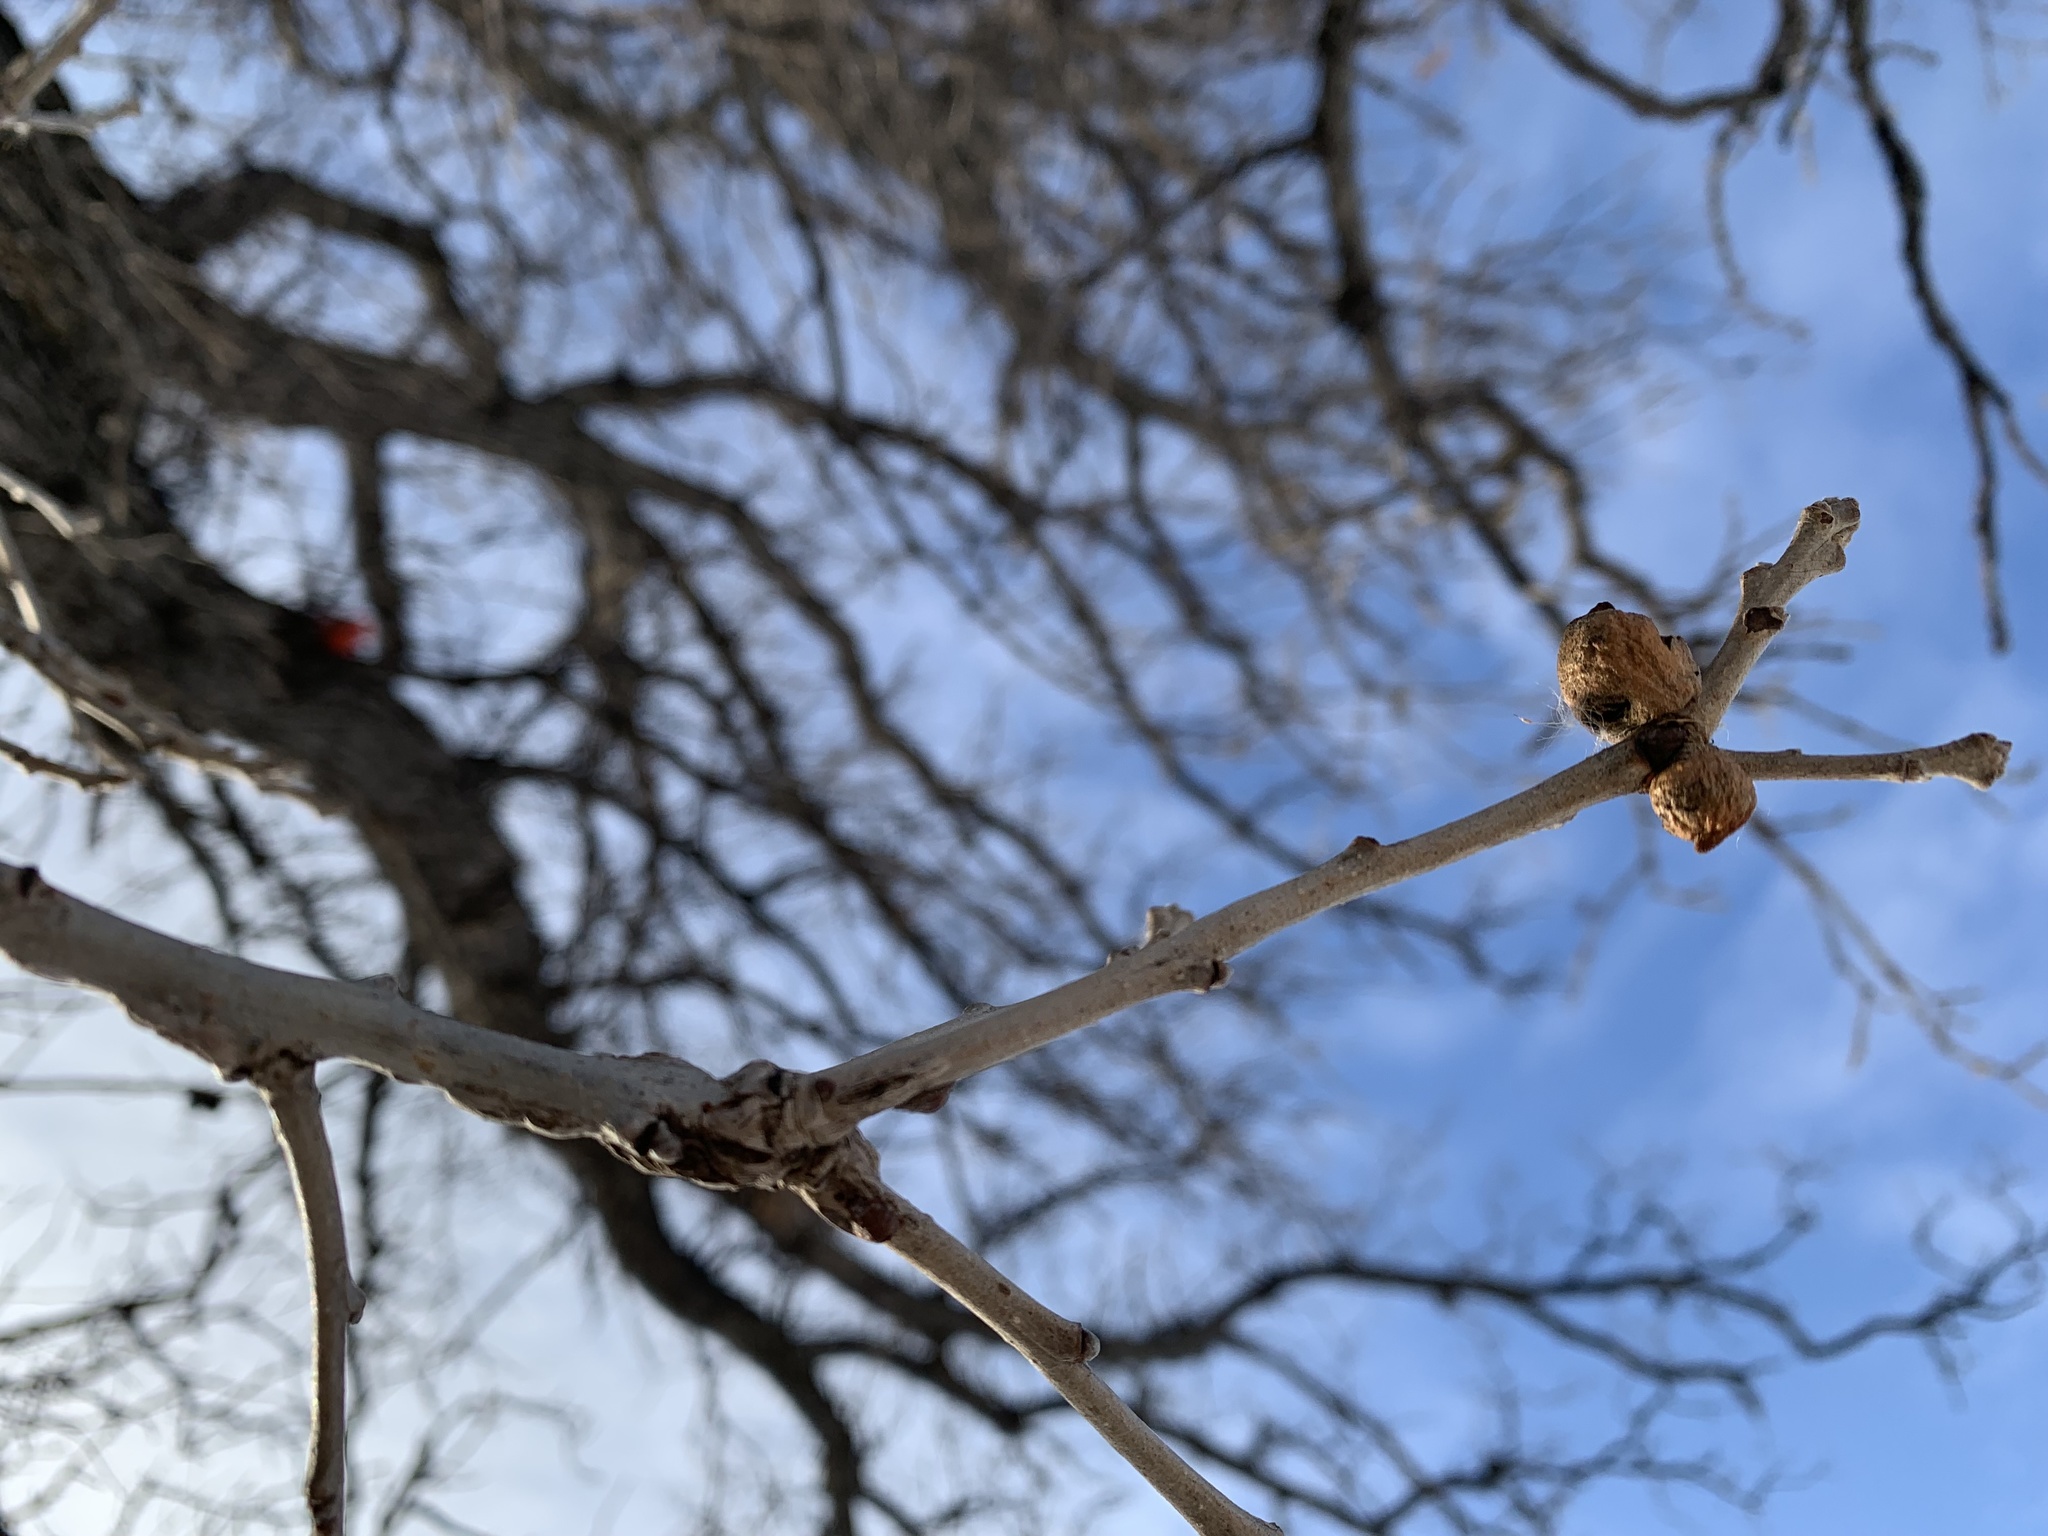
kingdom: Animalia
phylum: Arthropoda
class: Insecta
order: Hymenoptera
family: Cynipidae
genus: Disholcaspis
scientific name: Disholcaspis
